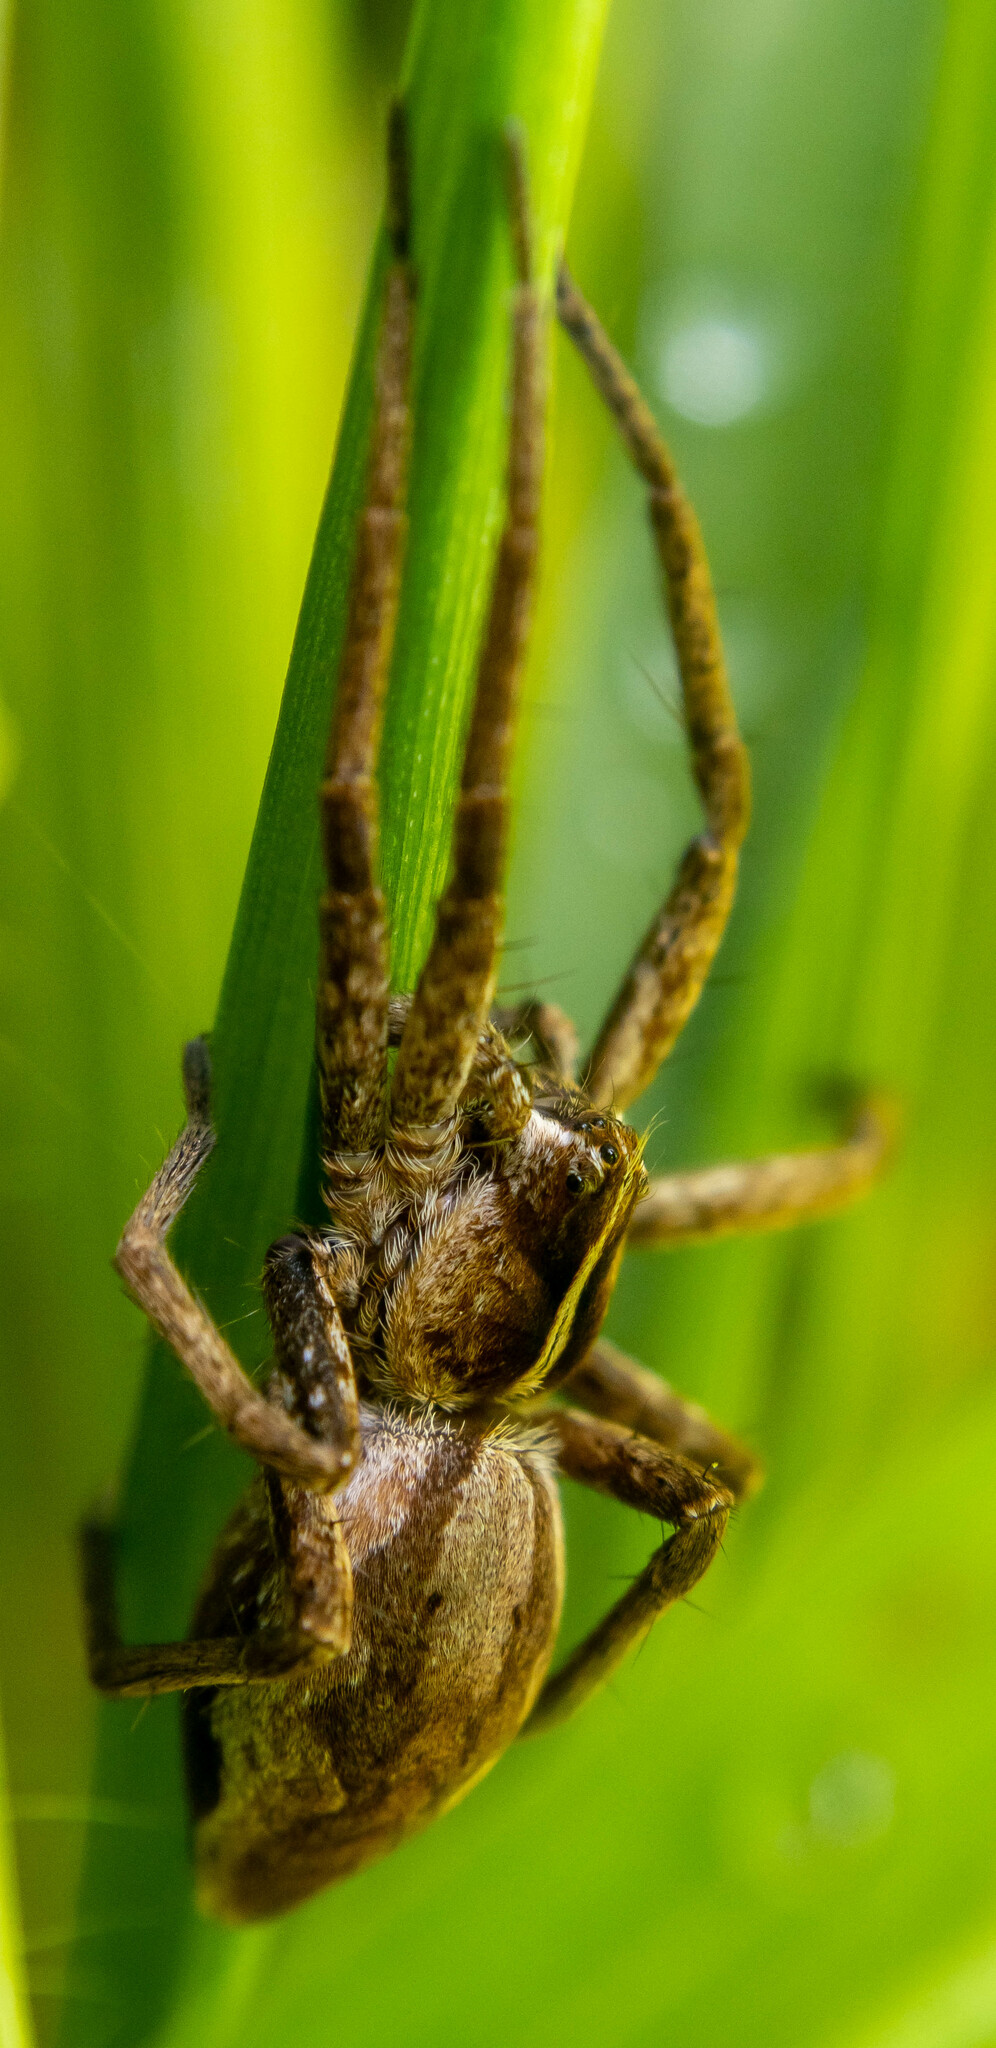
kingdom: Animalia
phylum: Arthropoda
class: Arachnida
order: Araneae
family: Pisauridae
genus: Pisaura
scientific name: Pisaura mirabilis
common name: Tent spider
